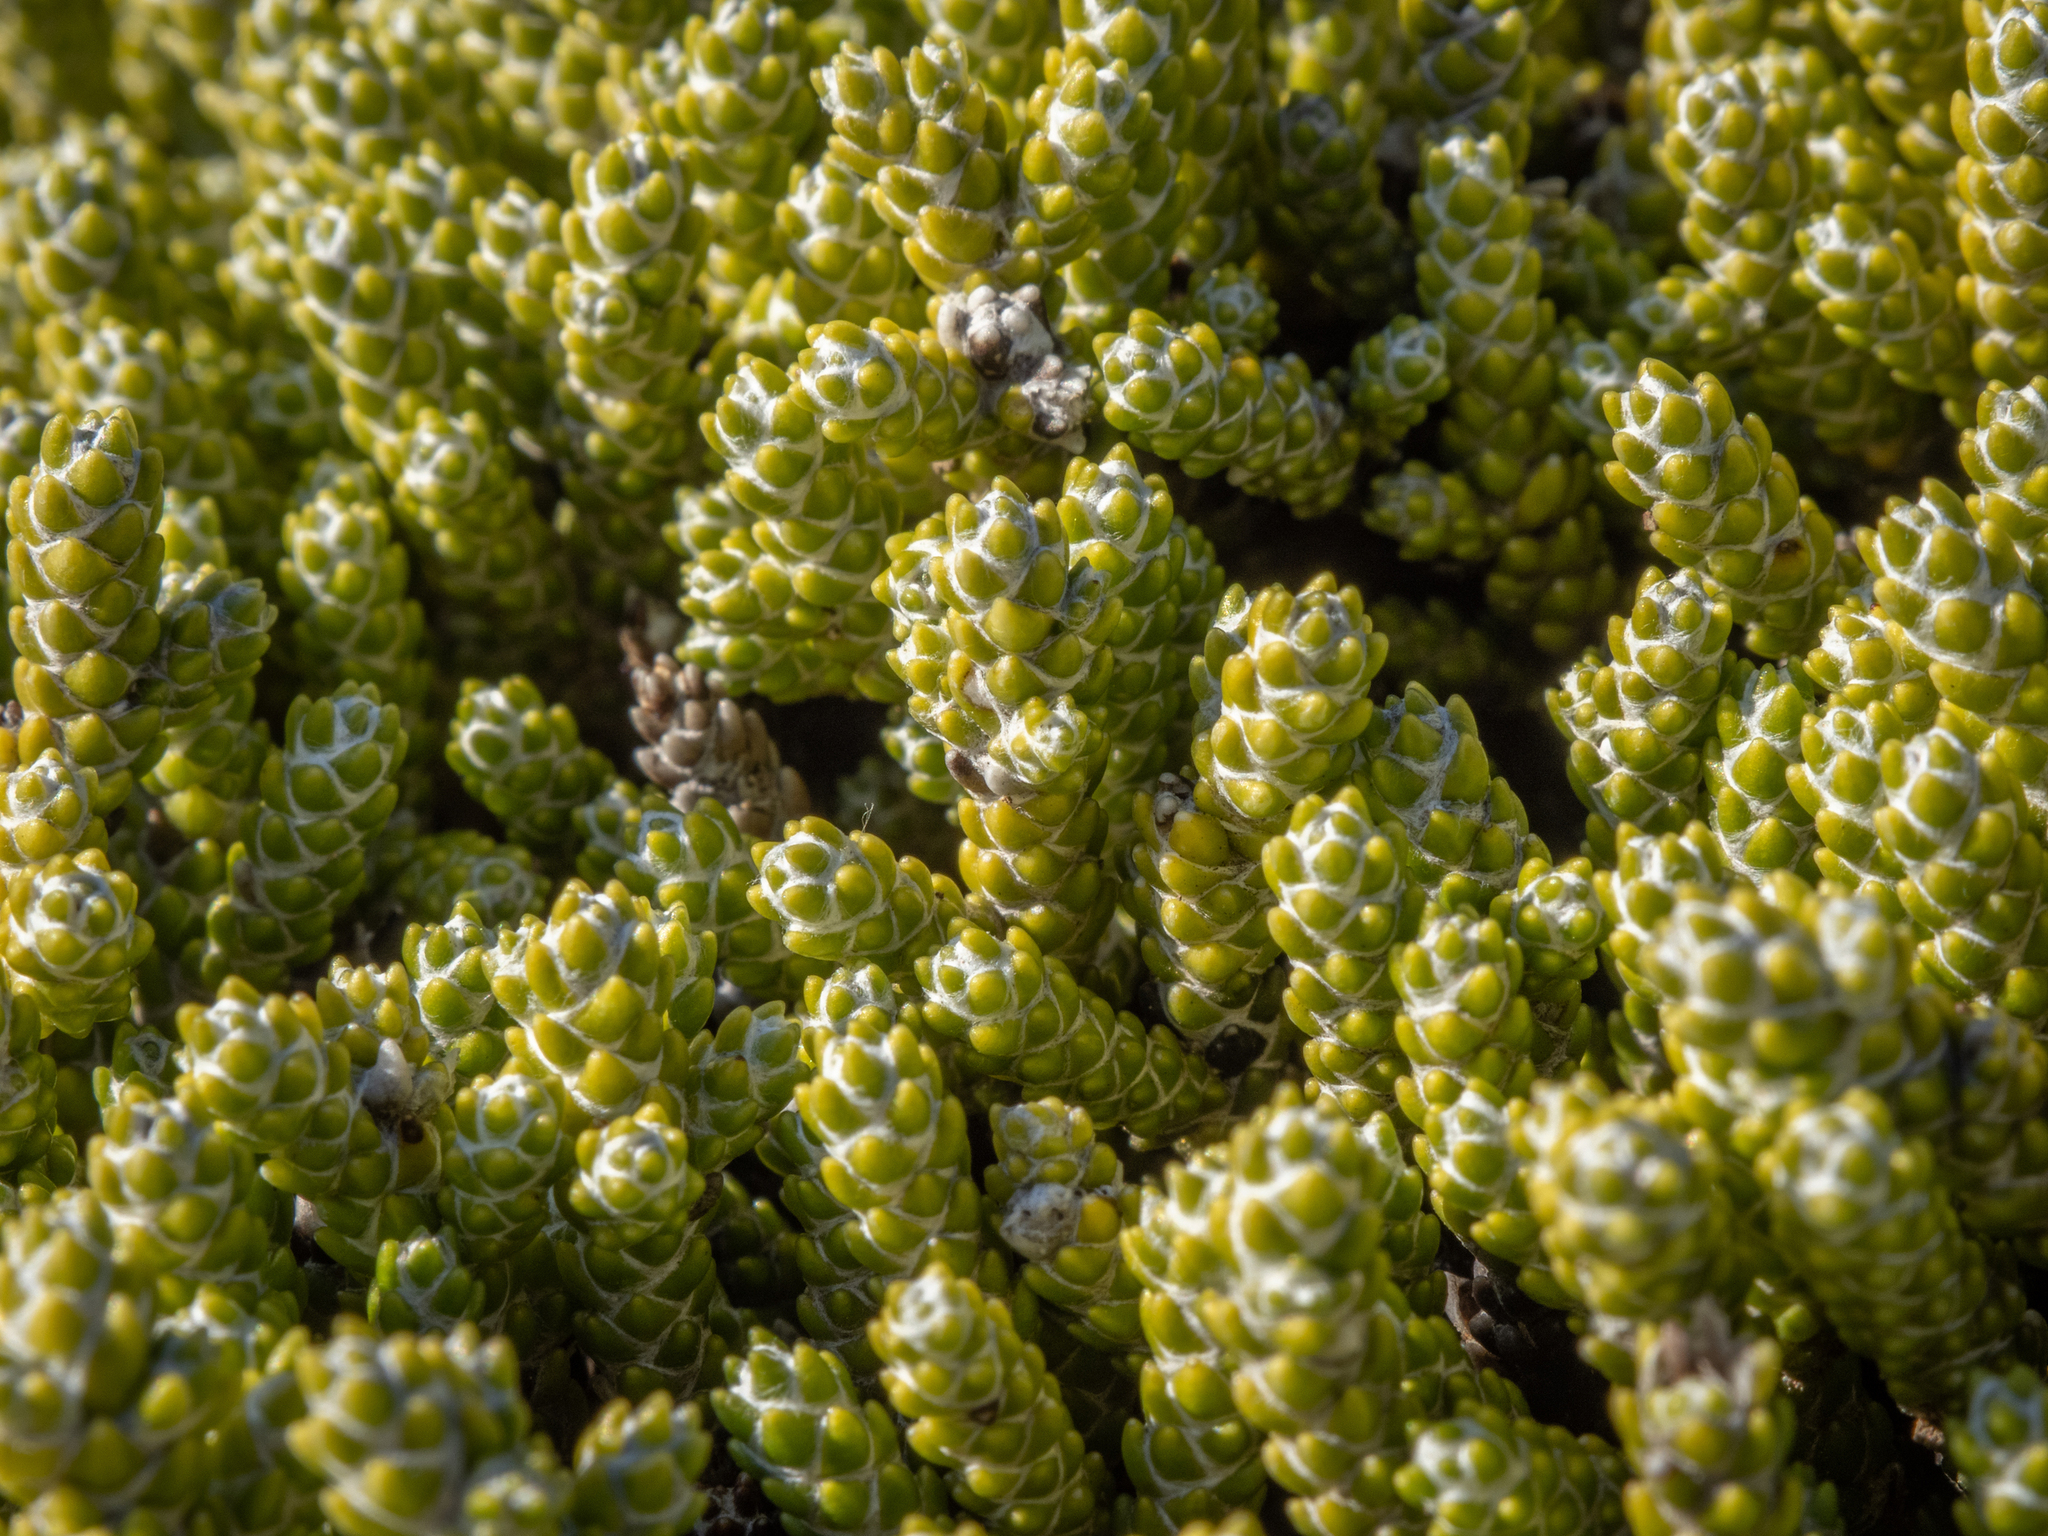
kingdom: Plantae
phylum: Tracheophyta
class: Magnoliopsida
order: Asterales
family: Asteraceae
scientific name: Asteraceae
